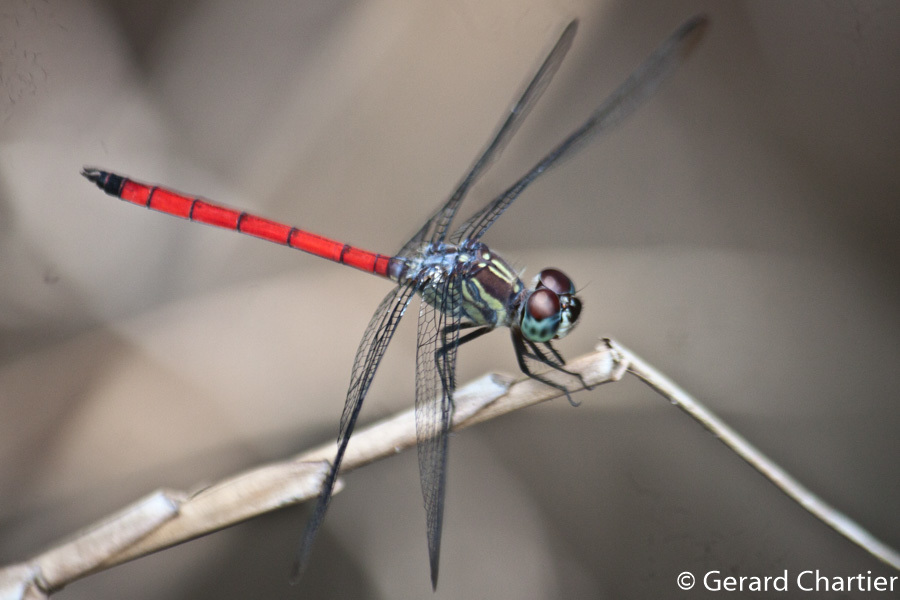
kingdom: Animalia
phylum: Arthropoda
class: Insecta
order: Odonata
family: Libellulidae
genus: Lathrecista
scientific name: Lathrecista asiatica
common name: Scarlet grenadier
